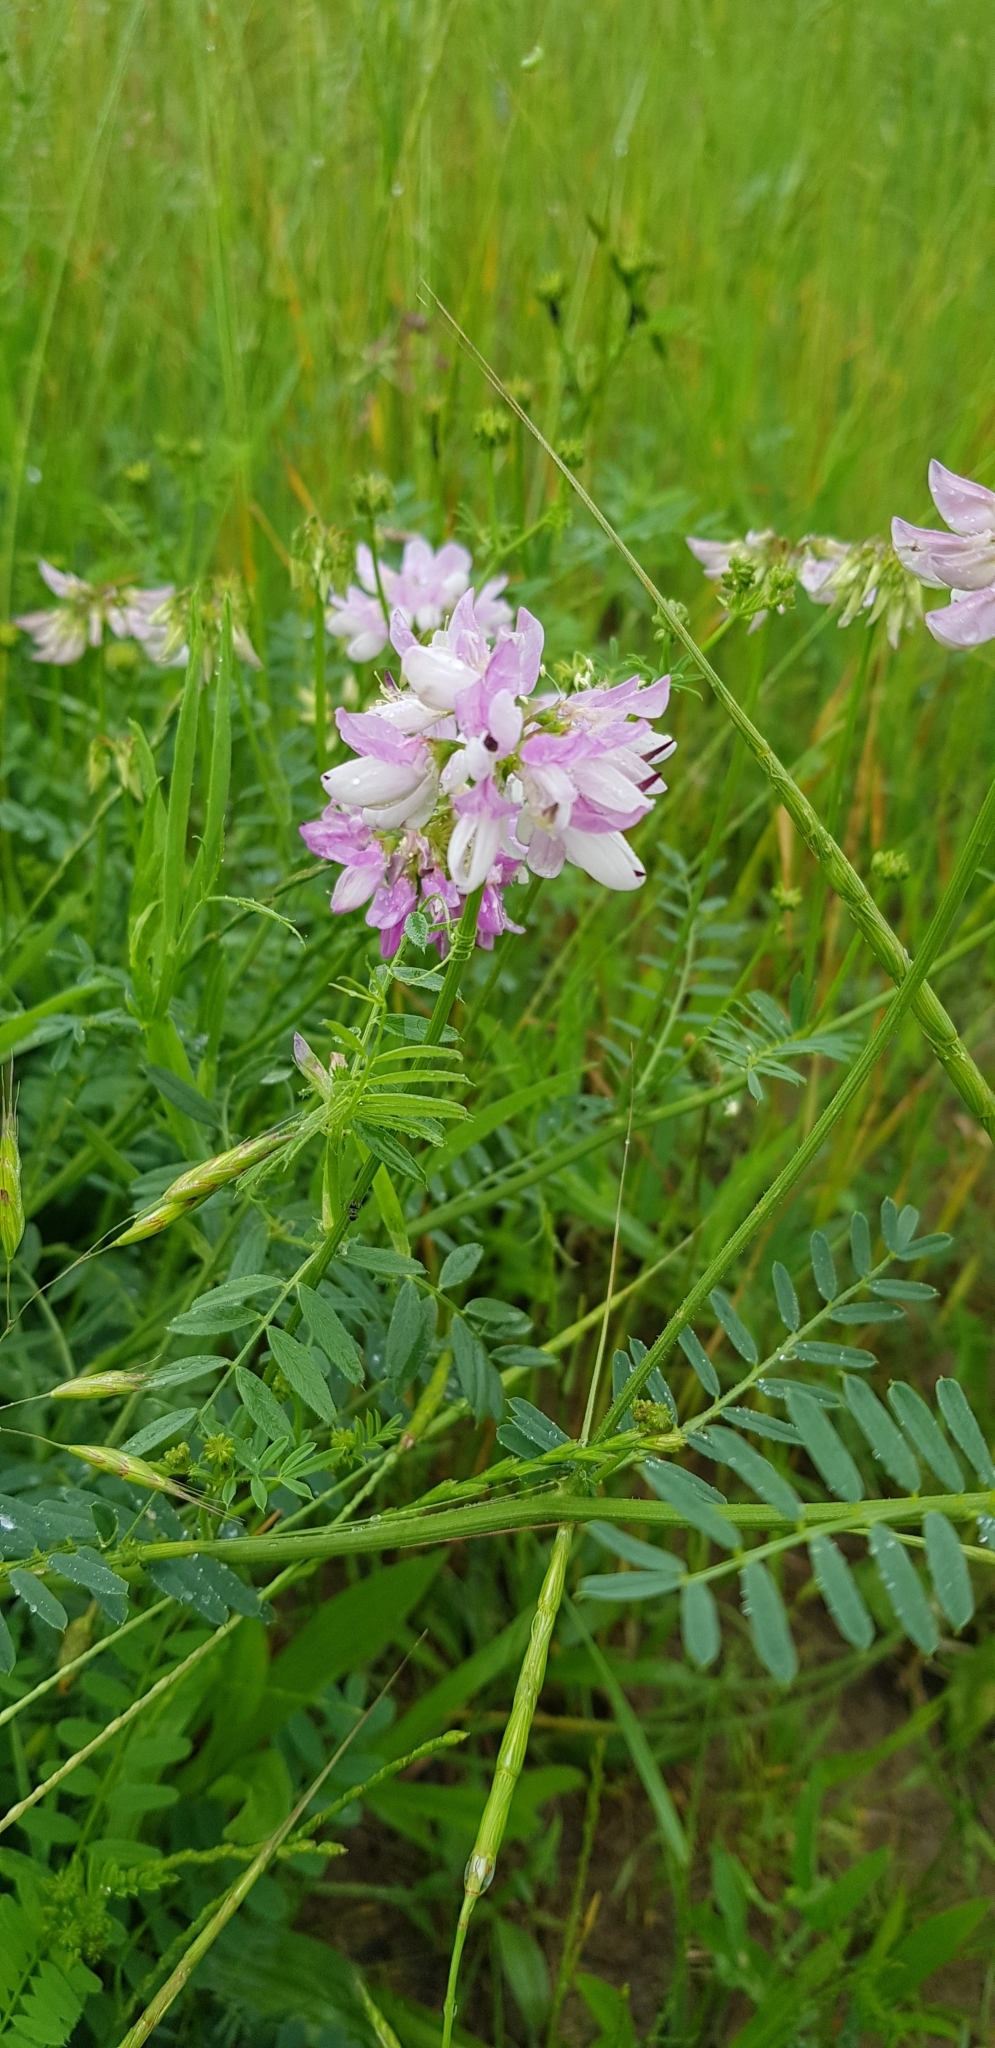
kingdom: Plantae
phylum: Tracheophyta
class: Magnoliopsida
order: Fabales
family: Fabaceae
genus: Coronilla
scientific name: Coronilla varia
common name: Crownvetch
